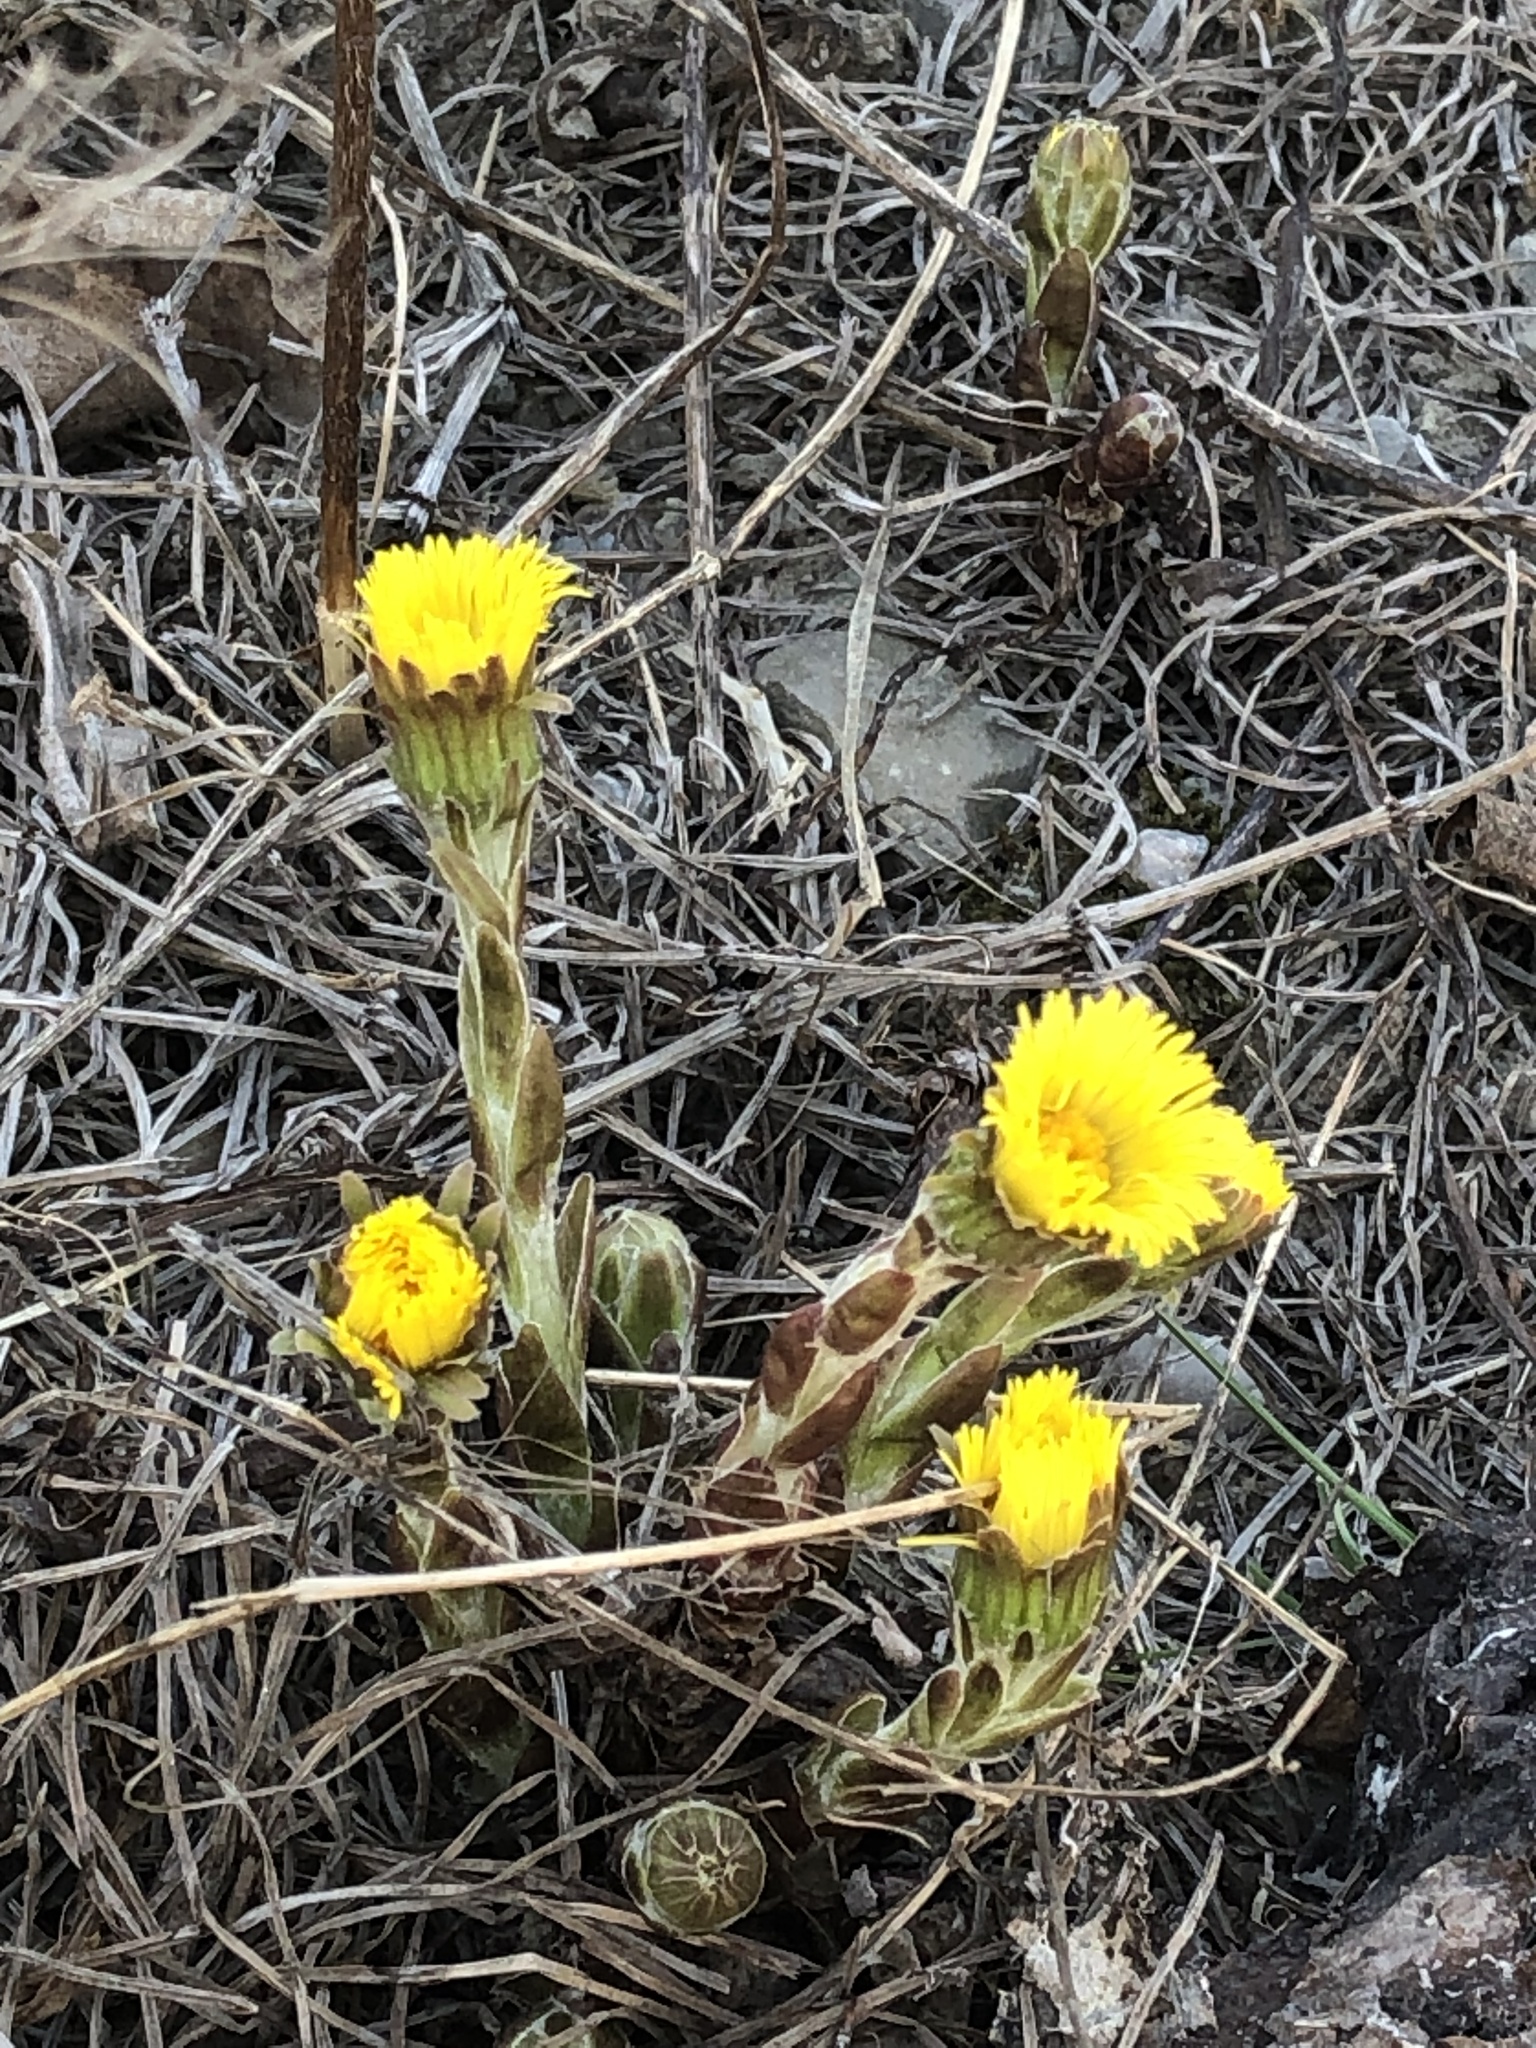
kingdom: Plantae
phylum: Tracheophyta
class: Magnoliopsida
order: Asterales
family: Asteraceae
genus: Tussilago
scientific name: Tussilago farfara
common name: Coltsfoot
